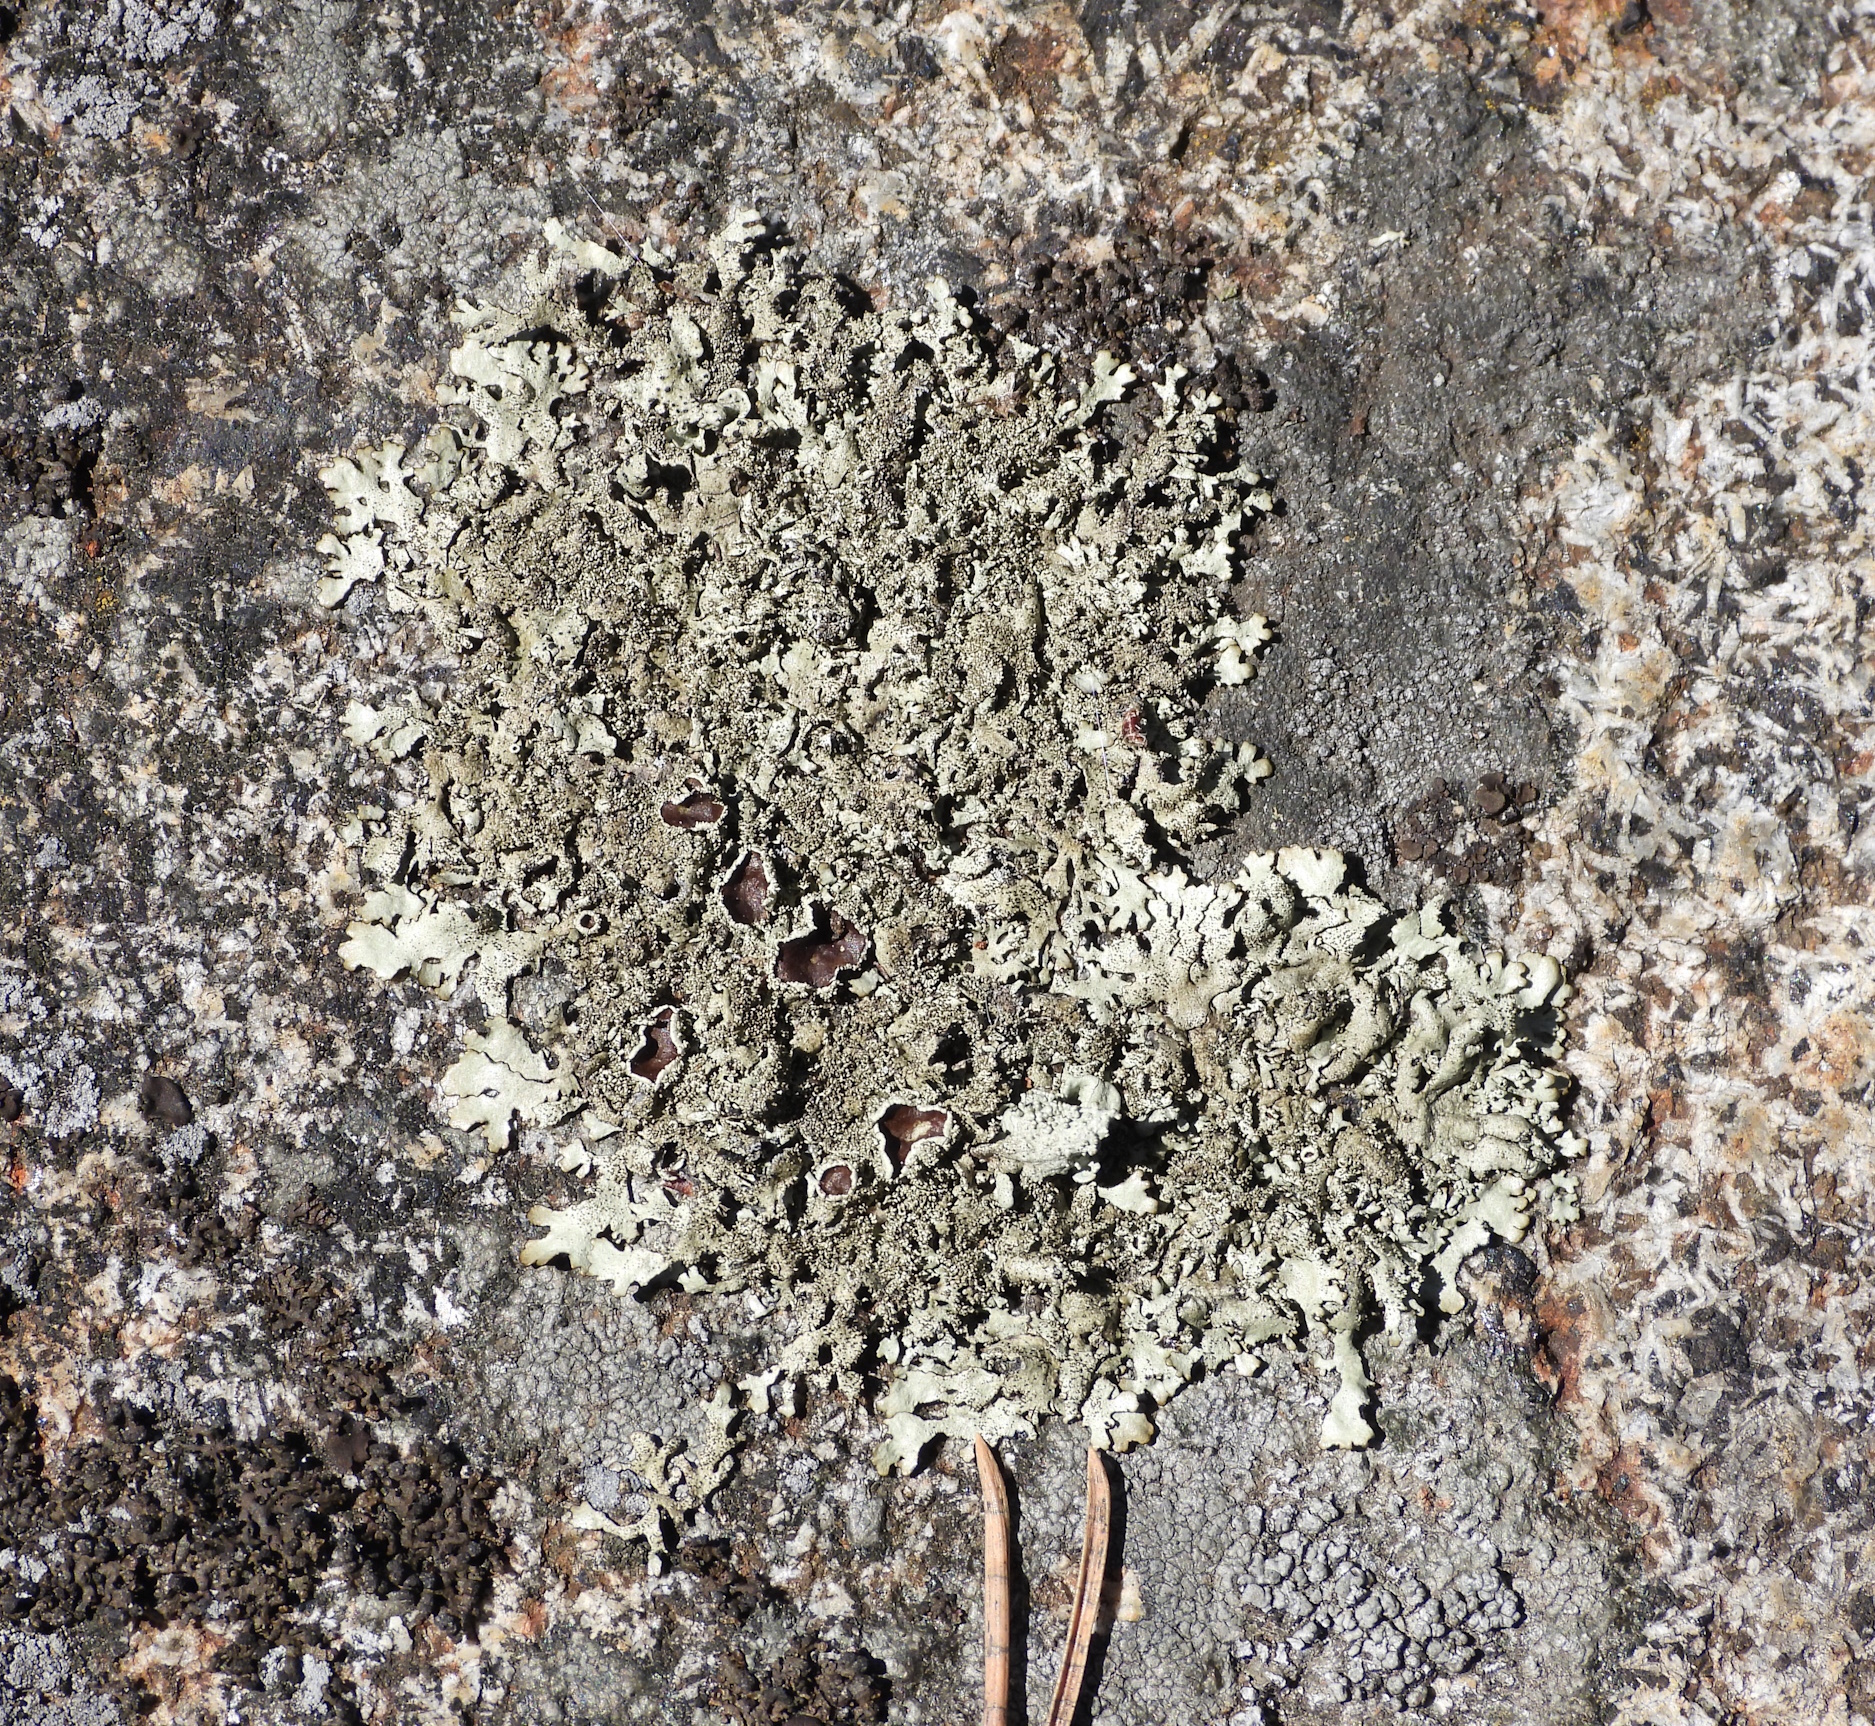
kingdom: Fungi
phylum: Ascomycota
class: Lecanoromycetes
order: Lecanorales
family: Parmeliaceae
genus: Xanthoparmelia
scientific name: Xanthoparmelia conspersa
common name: Peppered rock shield
